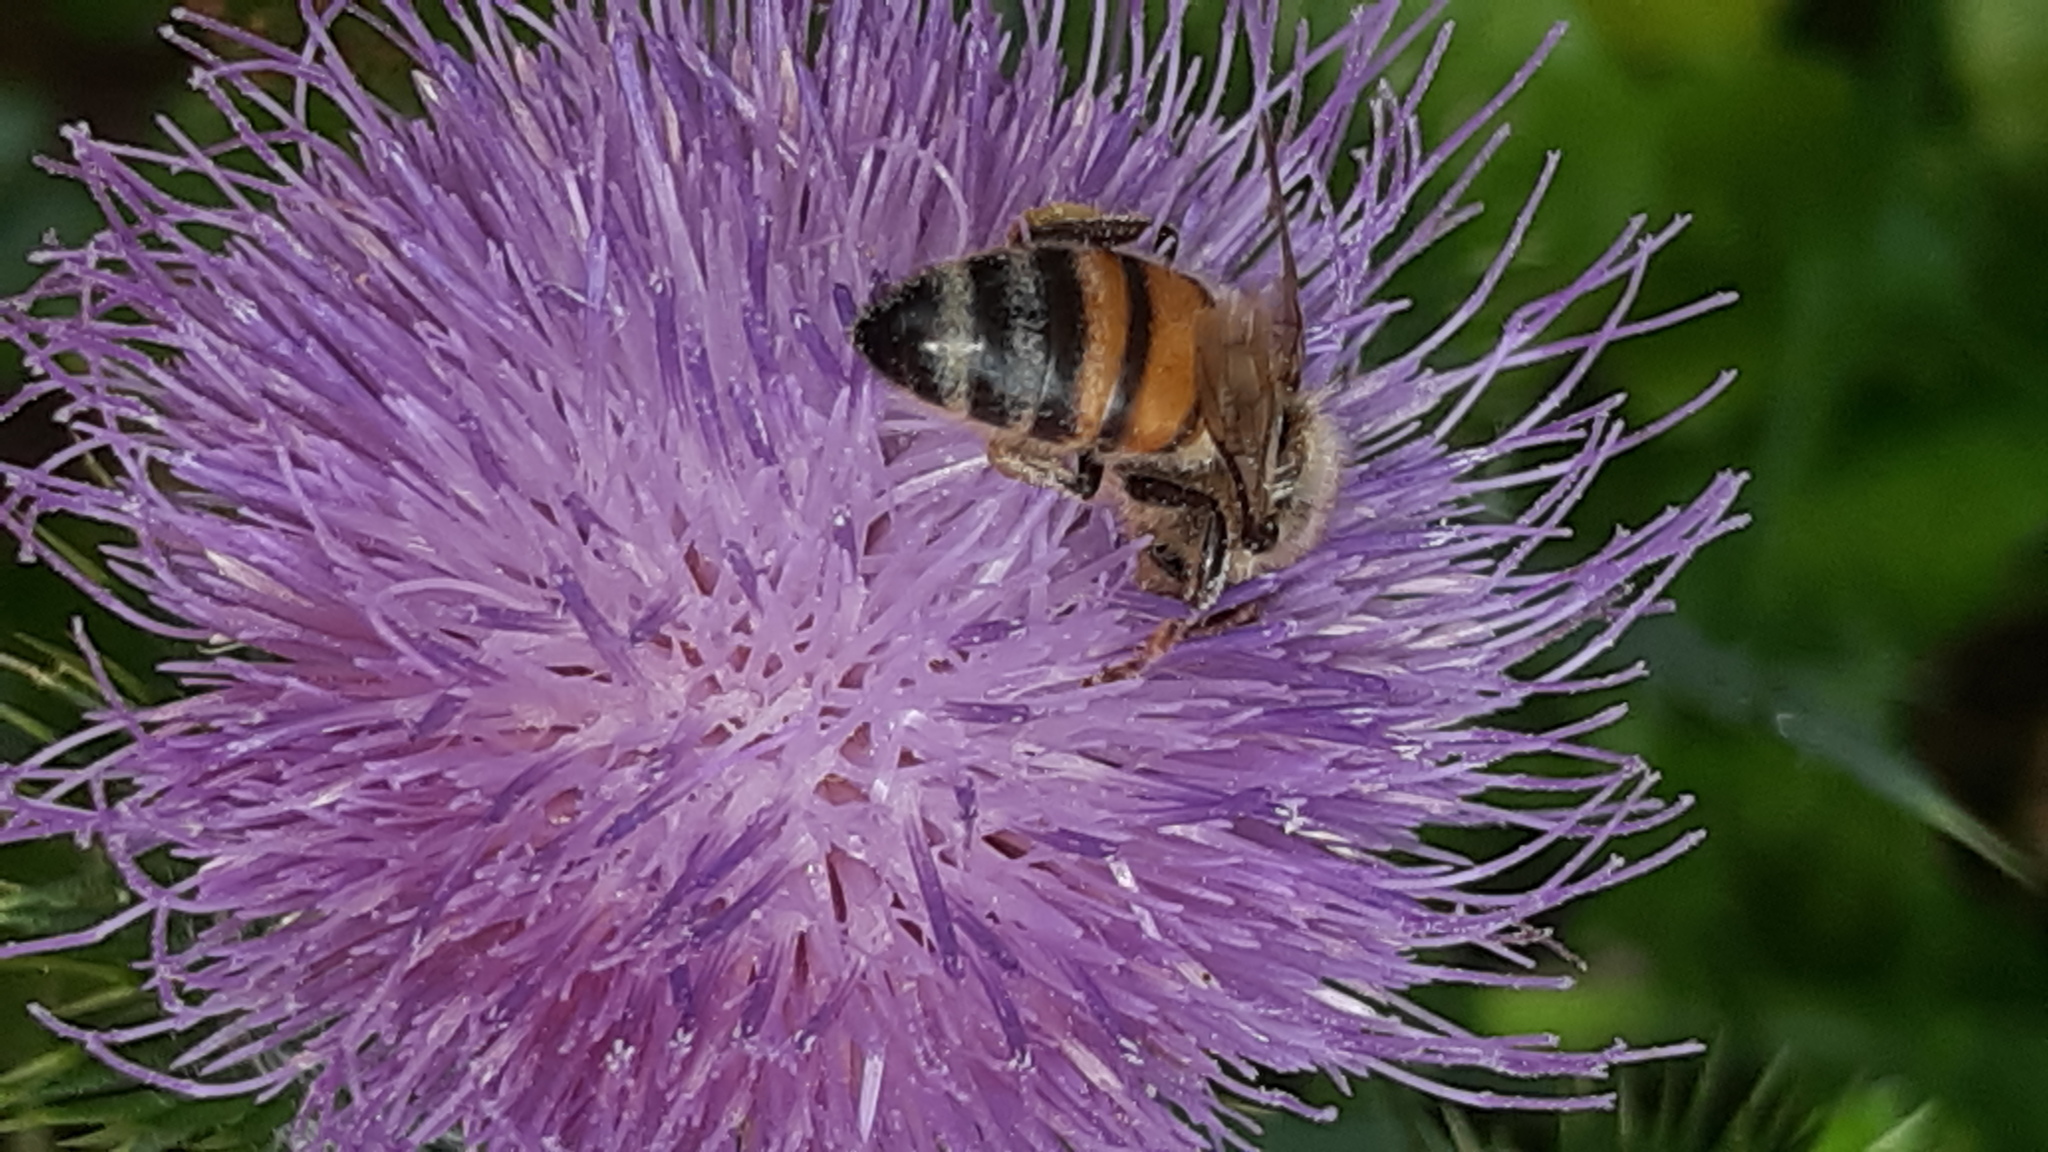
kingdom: Animalia
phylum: Arthropoda
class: Insecta
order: Hymenoptera
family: Apidae
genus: Apis
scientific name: Apis mellifera
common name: Honey bee
